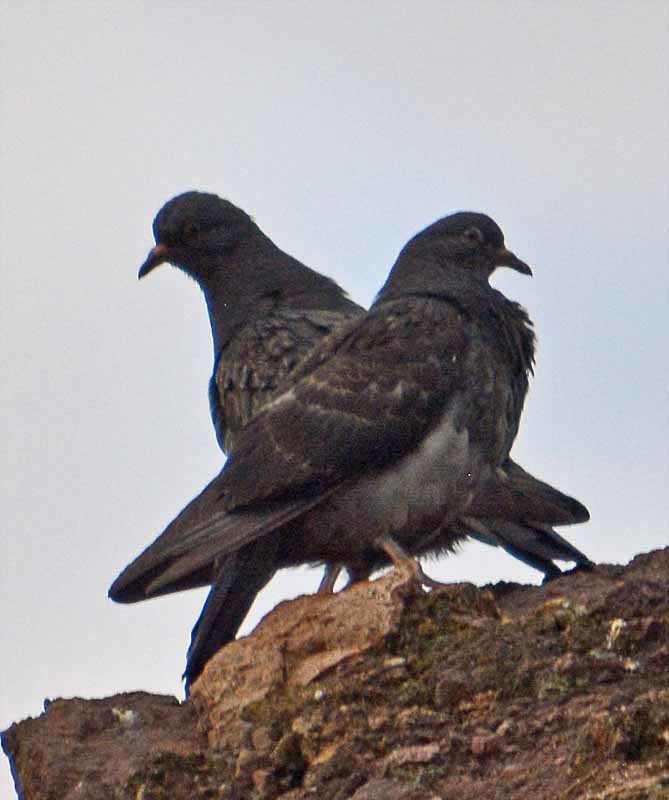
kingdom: Animalia
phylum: Chordata
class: Aves
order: Columbiformes
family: Columbidae
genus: Columba
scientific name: Columba livia
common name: Rock pigeon
